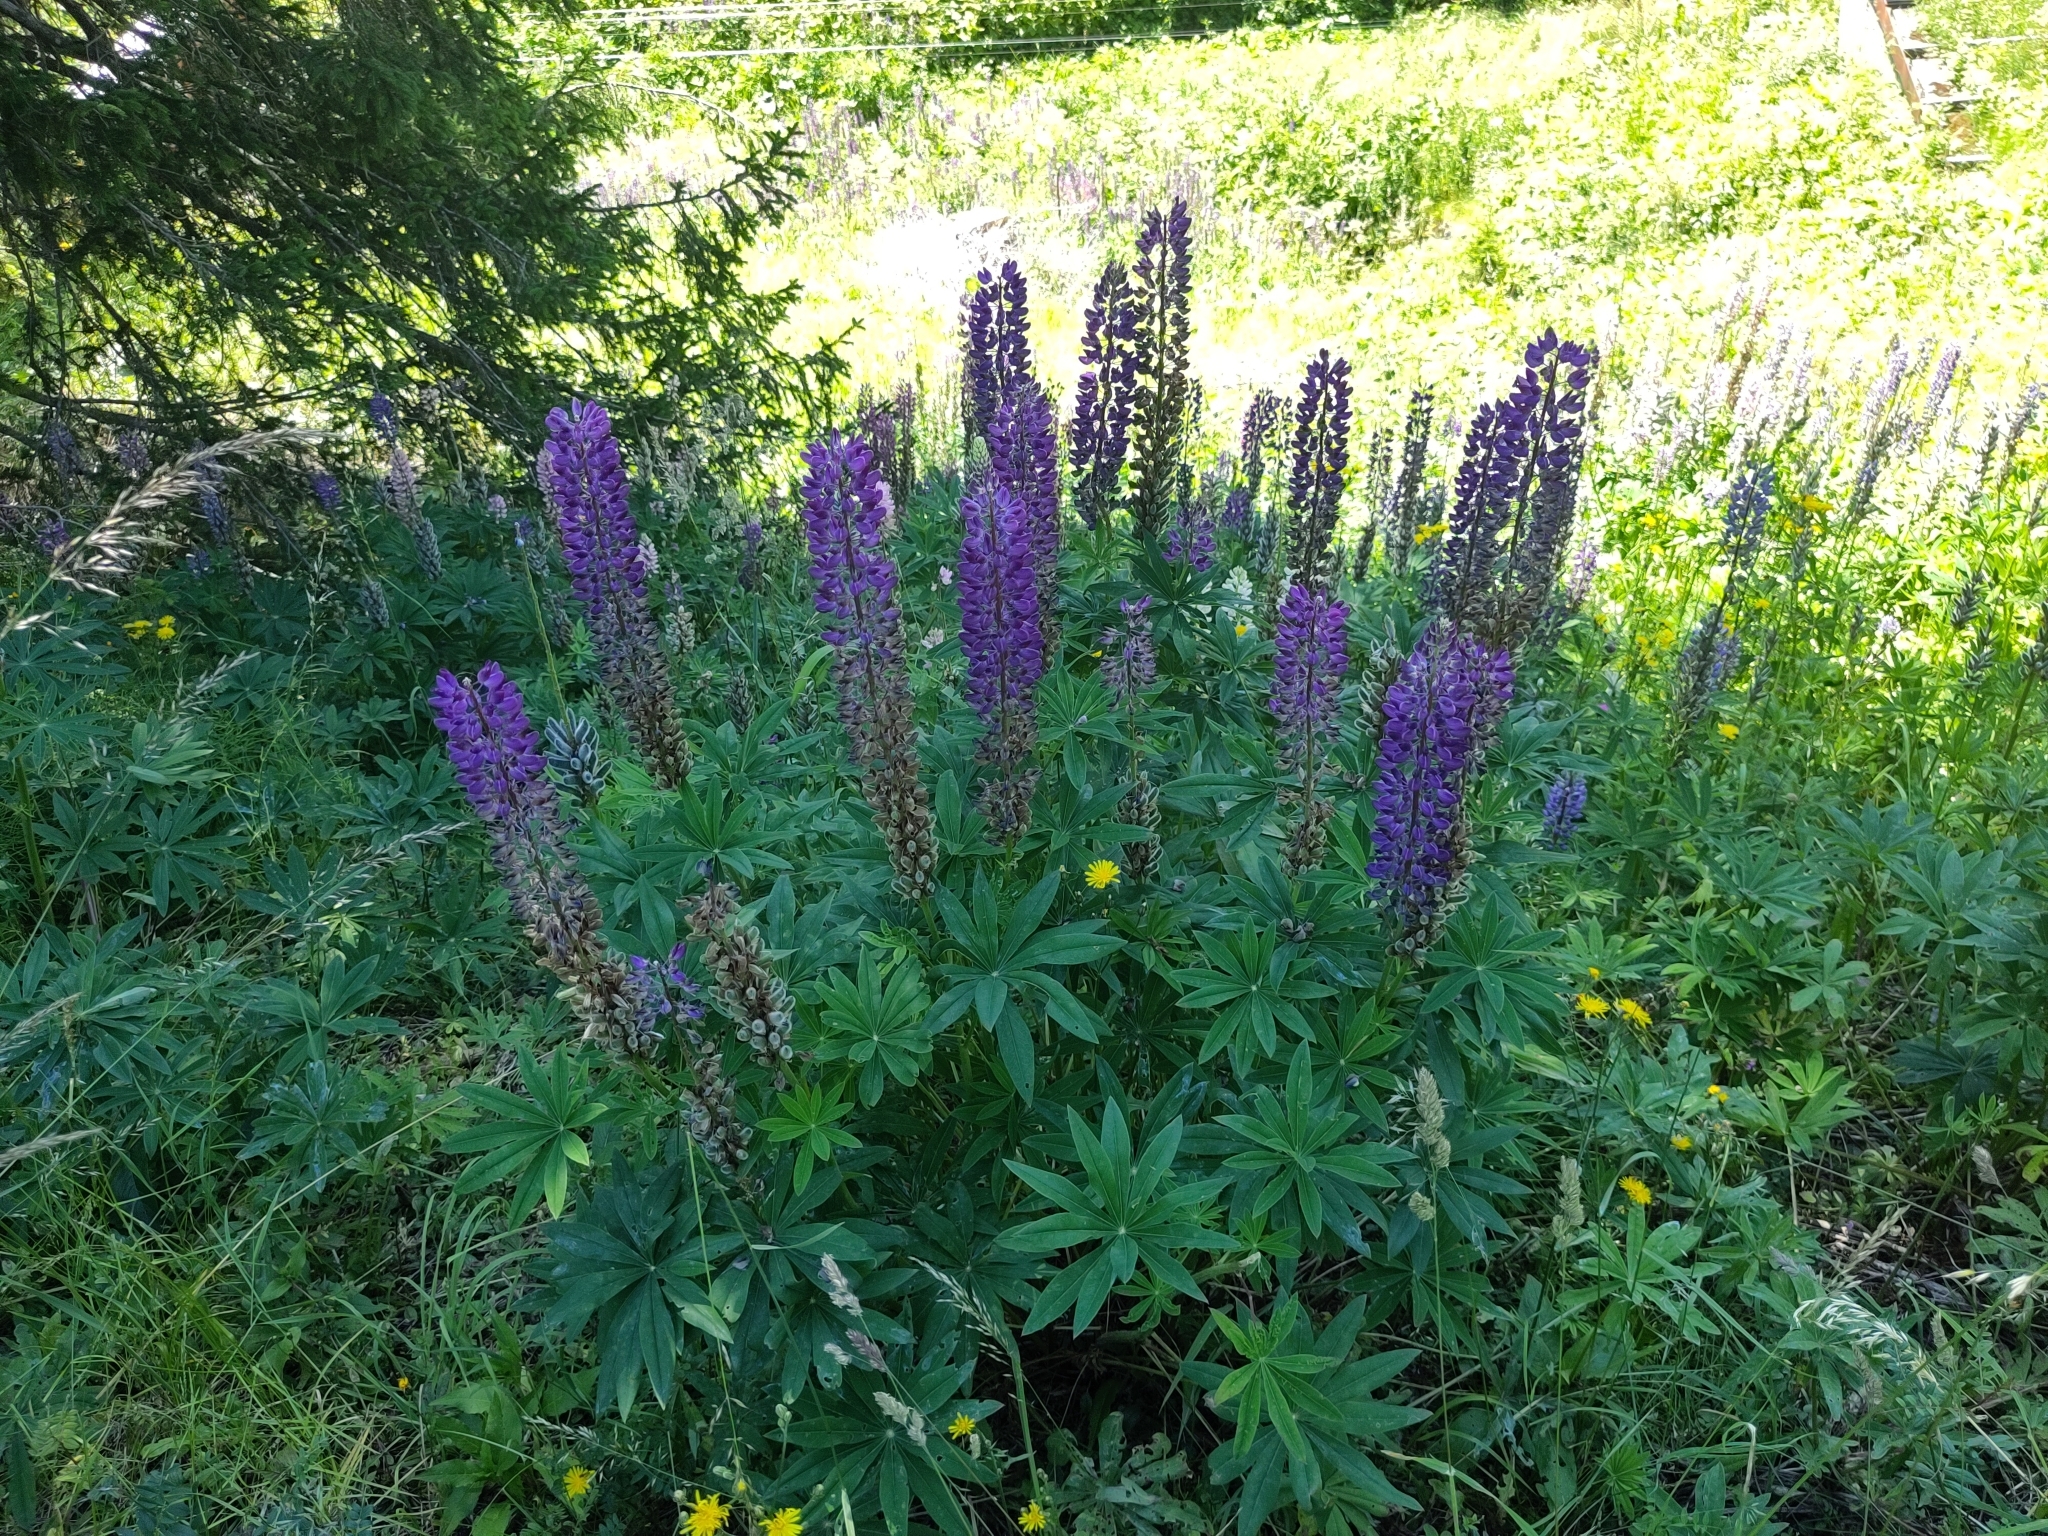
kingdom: Plantae
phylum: Tracheophyta
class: Magnoliopsida
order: Fabales
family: Fabaceae
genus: Lupinus
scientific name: Lupinus polyphyllus
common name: Garden lupin
